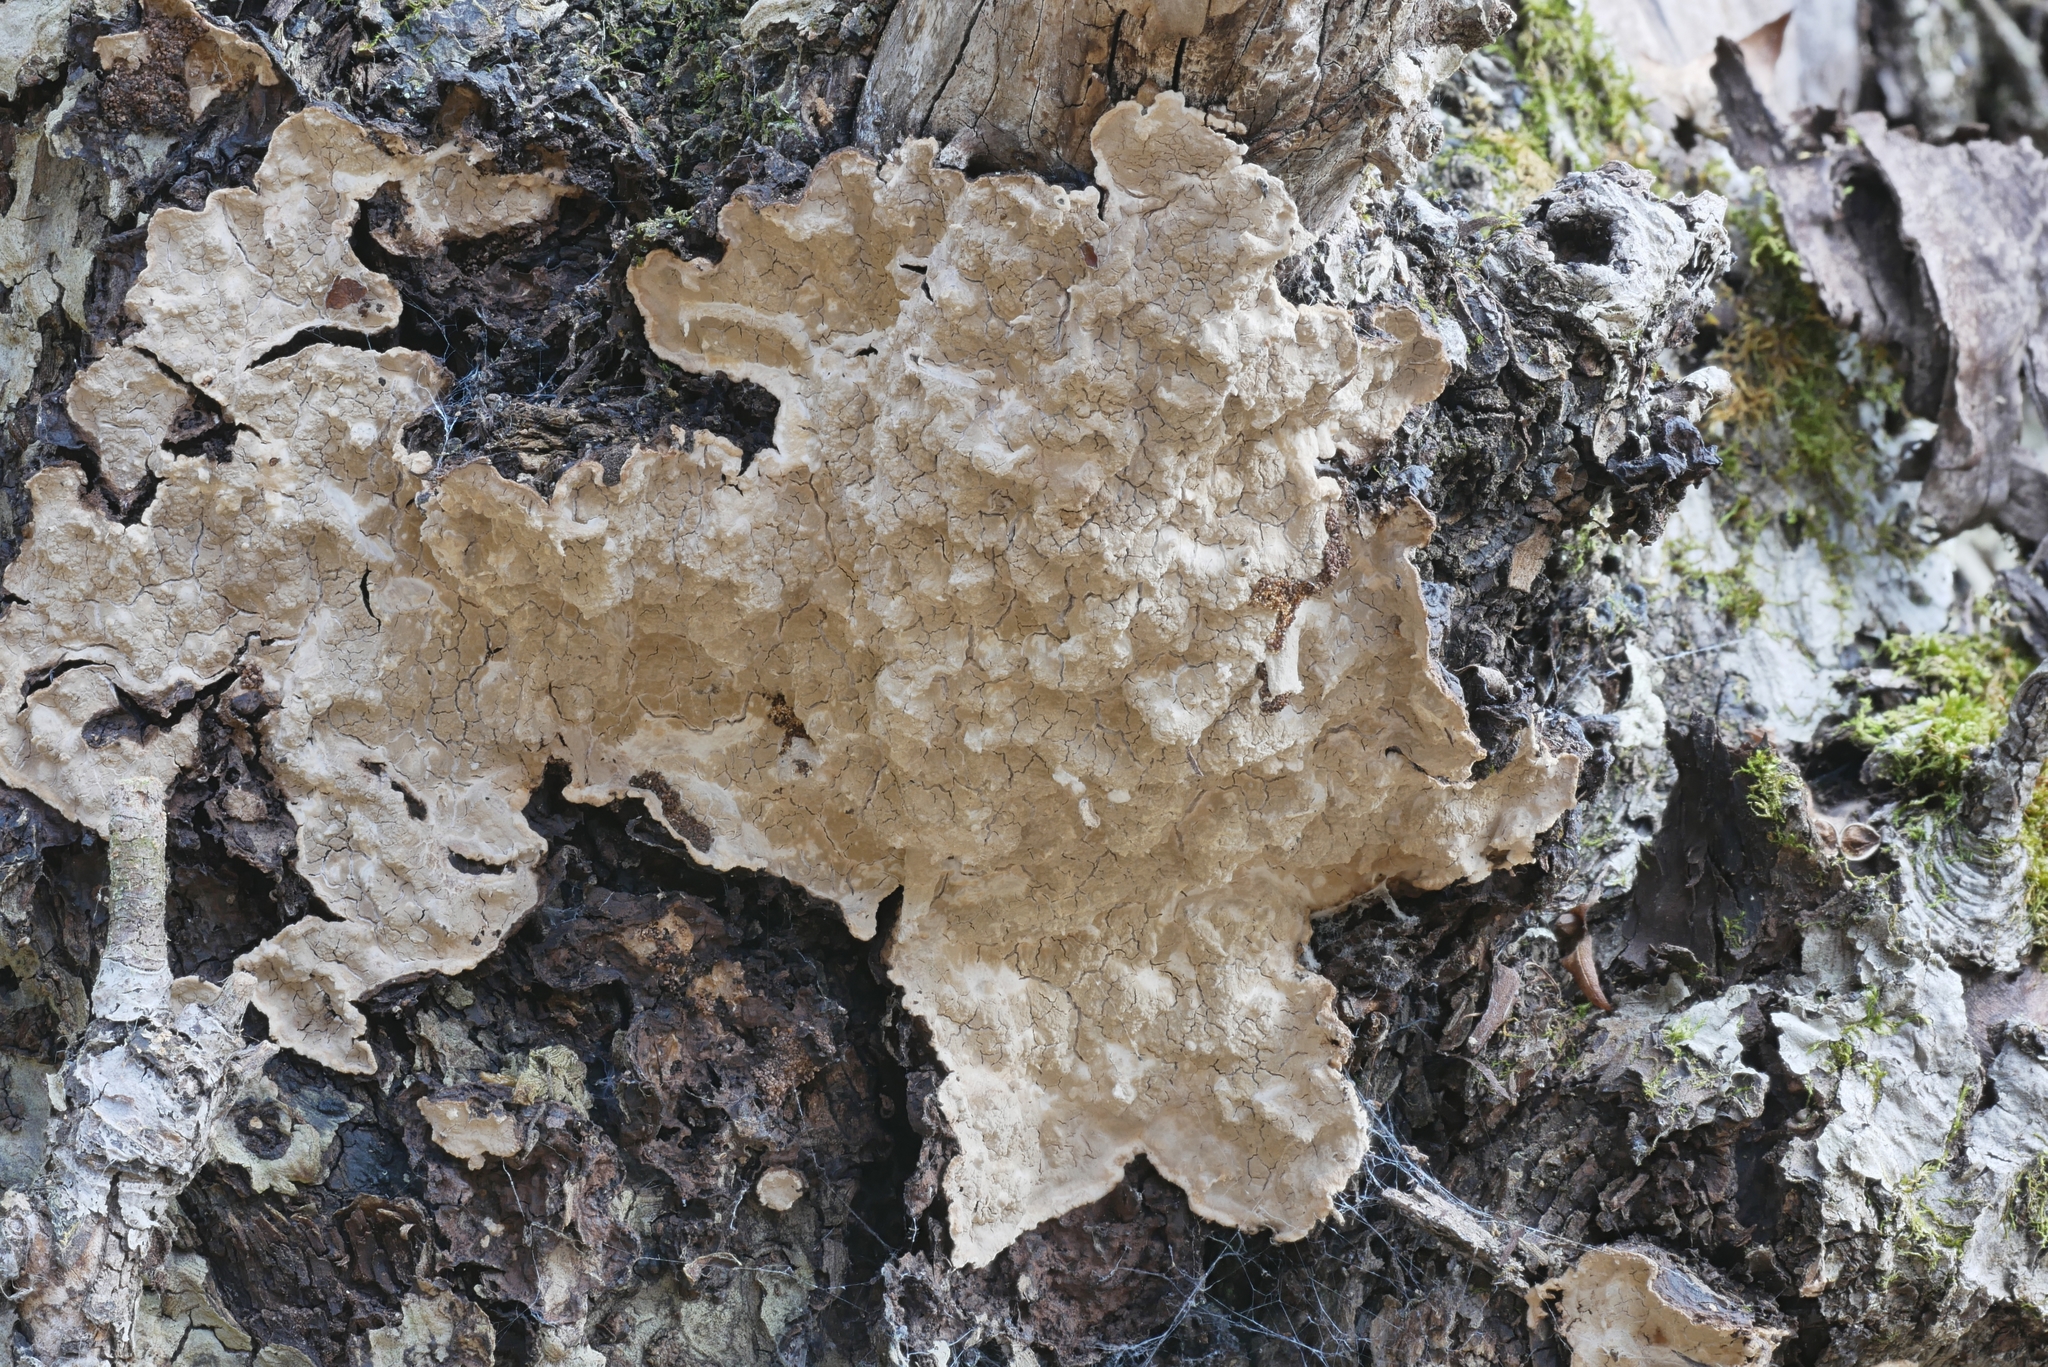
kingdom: Fungi
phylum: Basidiomycota
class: Agaricomycetes
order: Agaricales
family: Cystostereaceae
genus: Cystostereum
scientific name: Cystostereum murrayi
